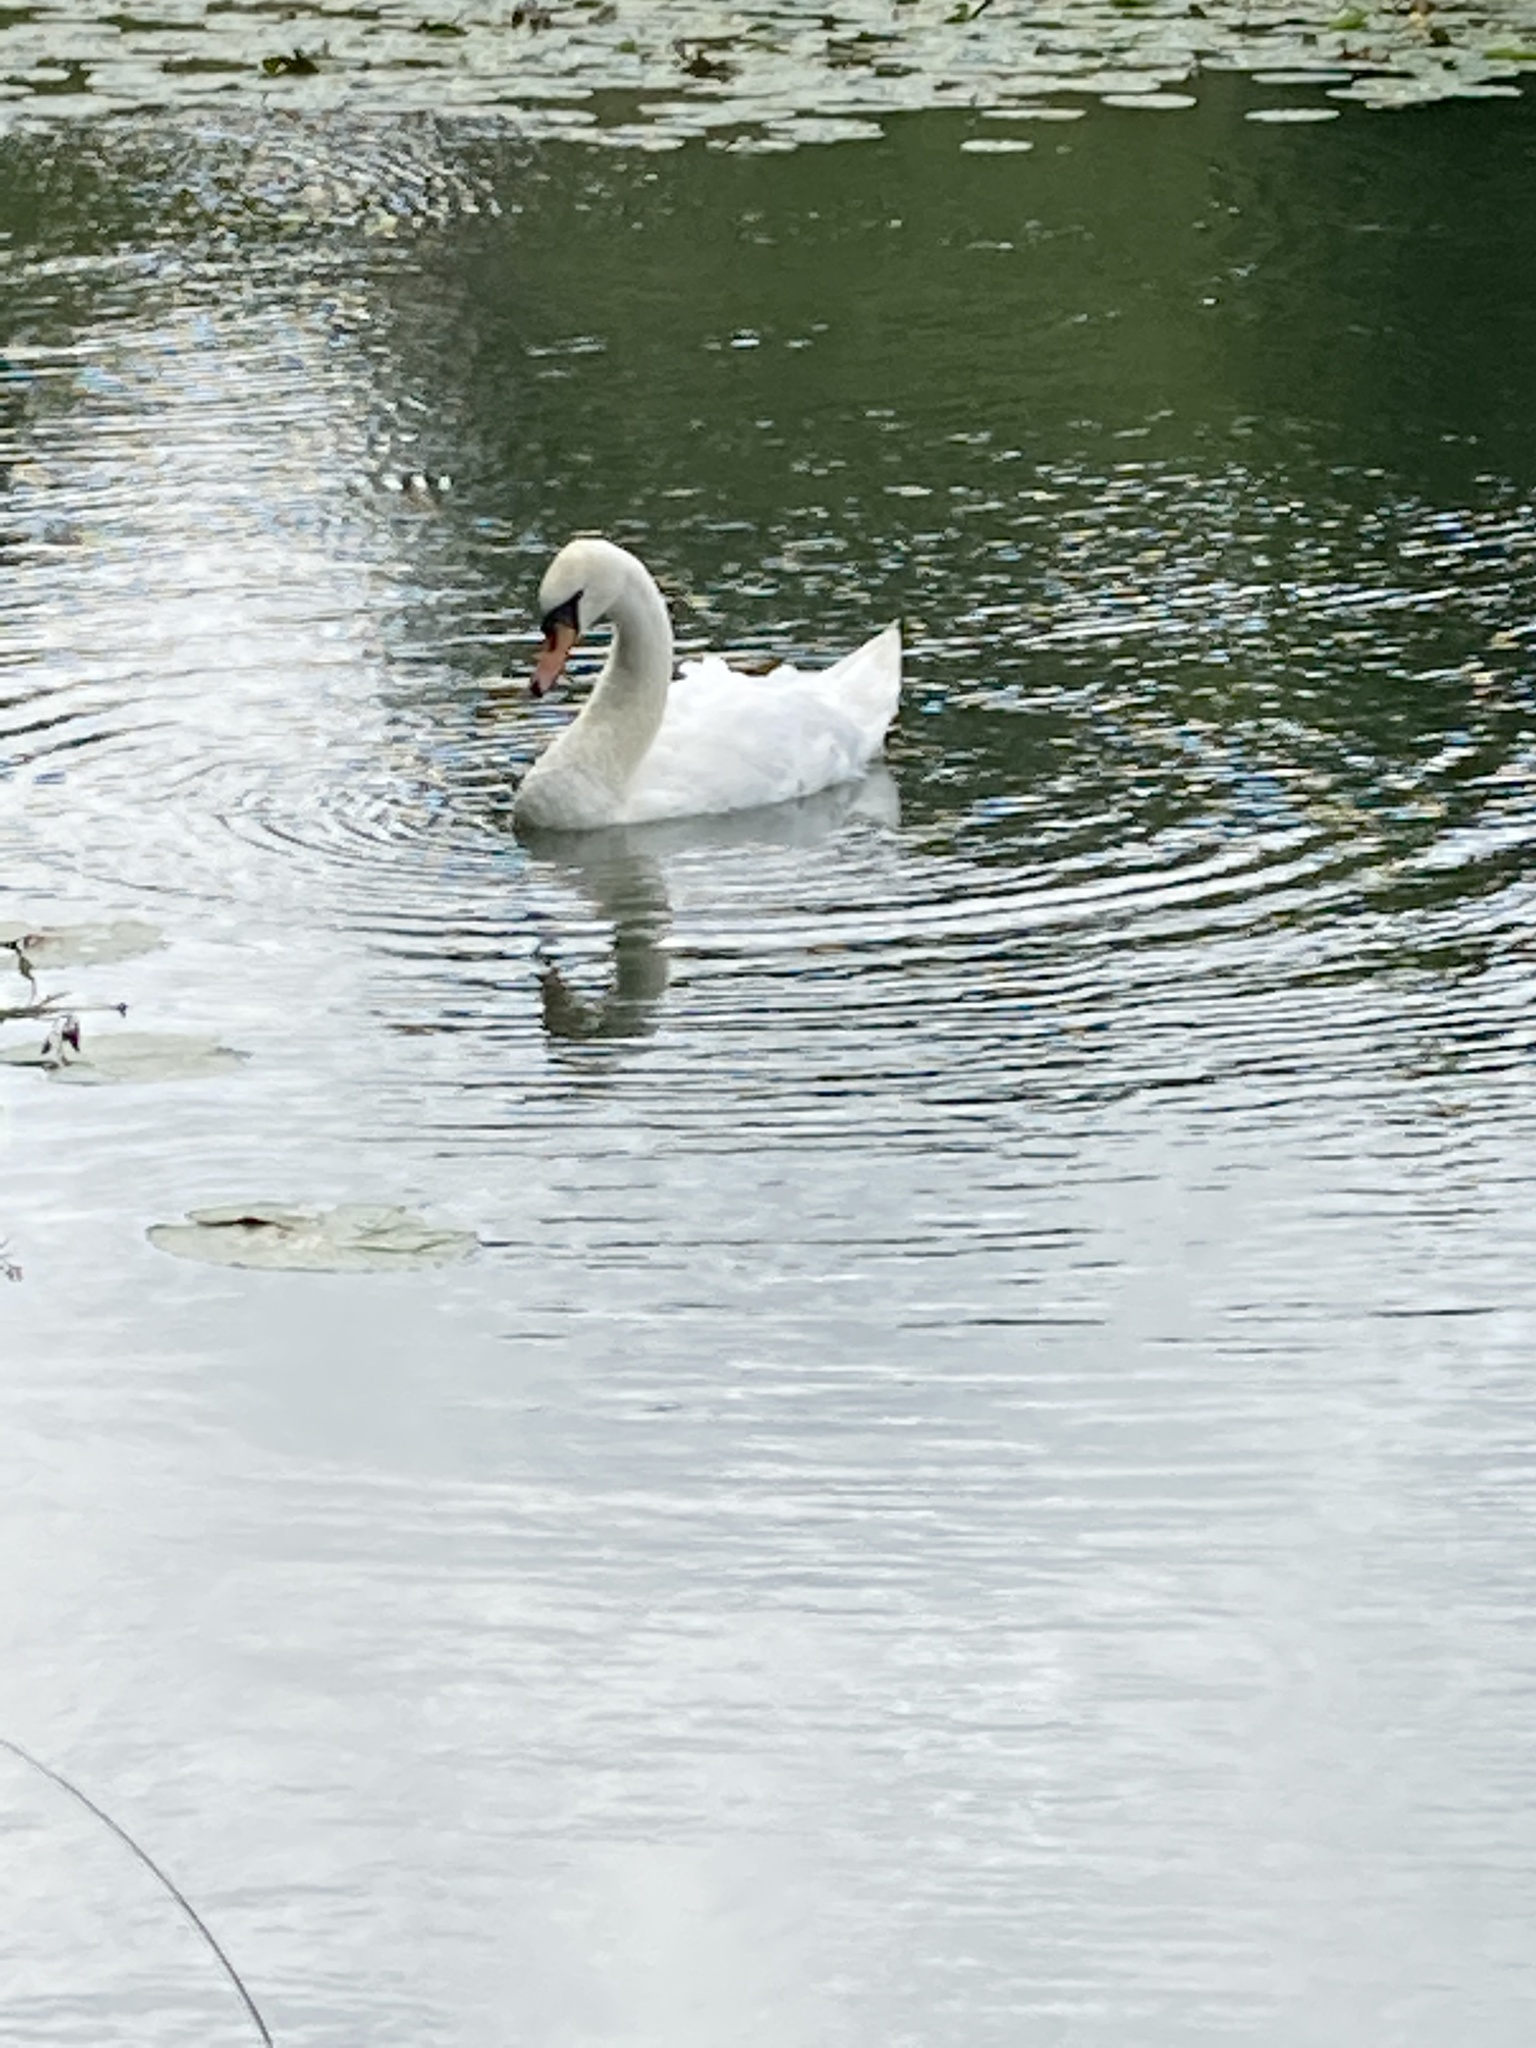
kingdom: Animalia
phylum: Chordata
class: Aves
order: Anseriformes
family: Anatidae
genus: Cygnus
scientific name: Cygnus olor
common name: Mute swan
